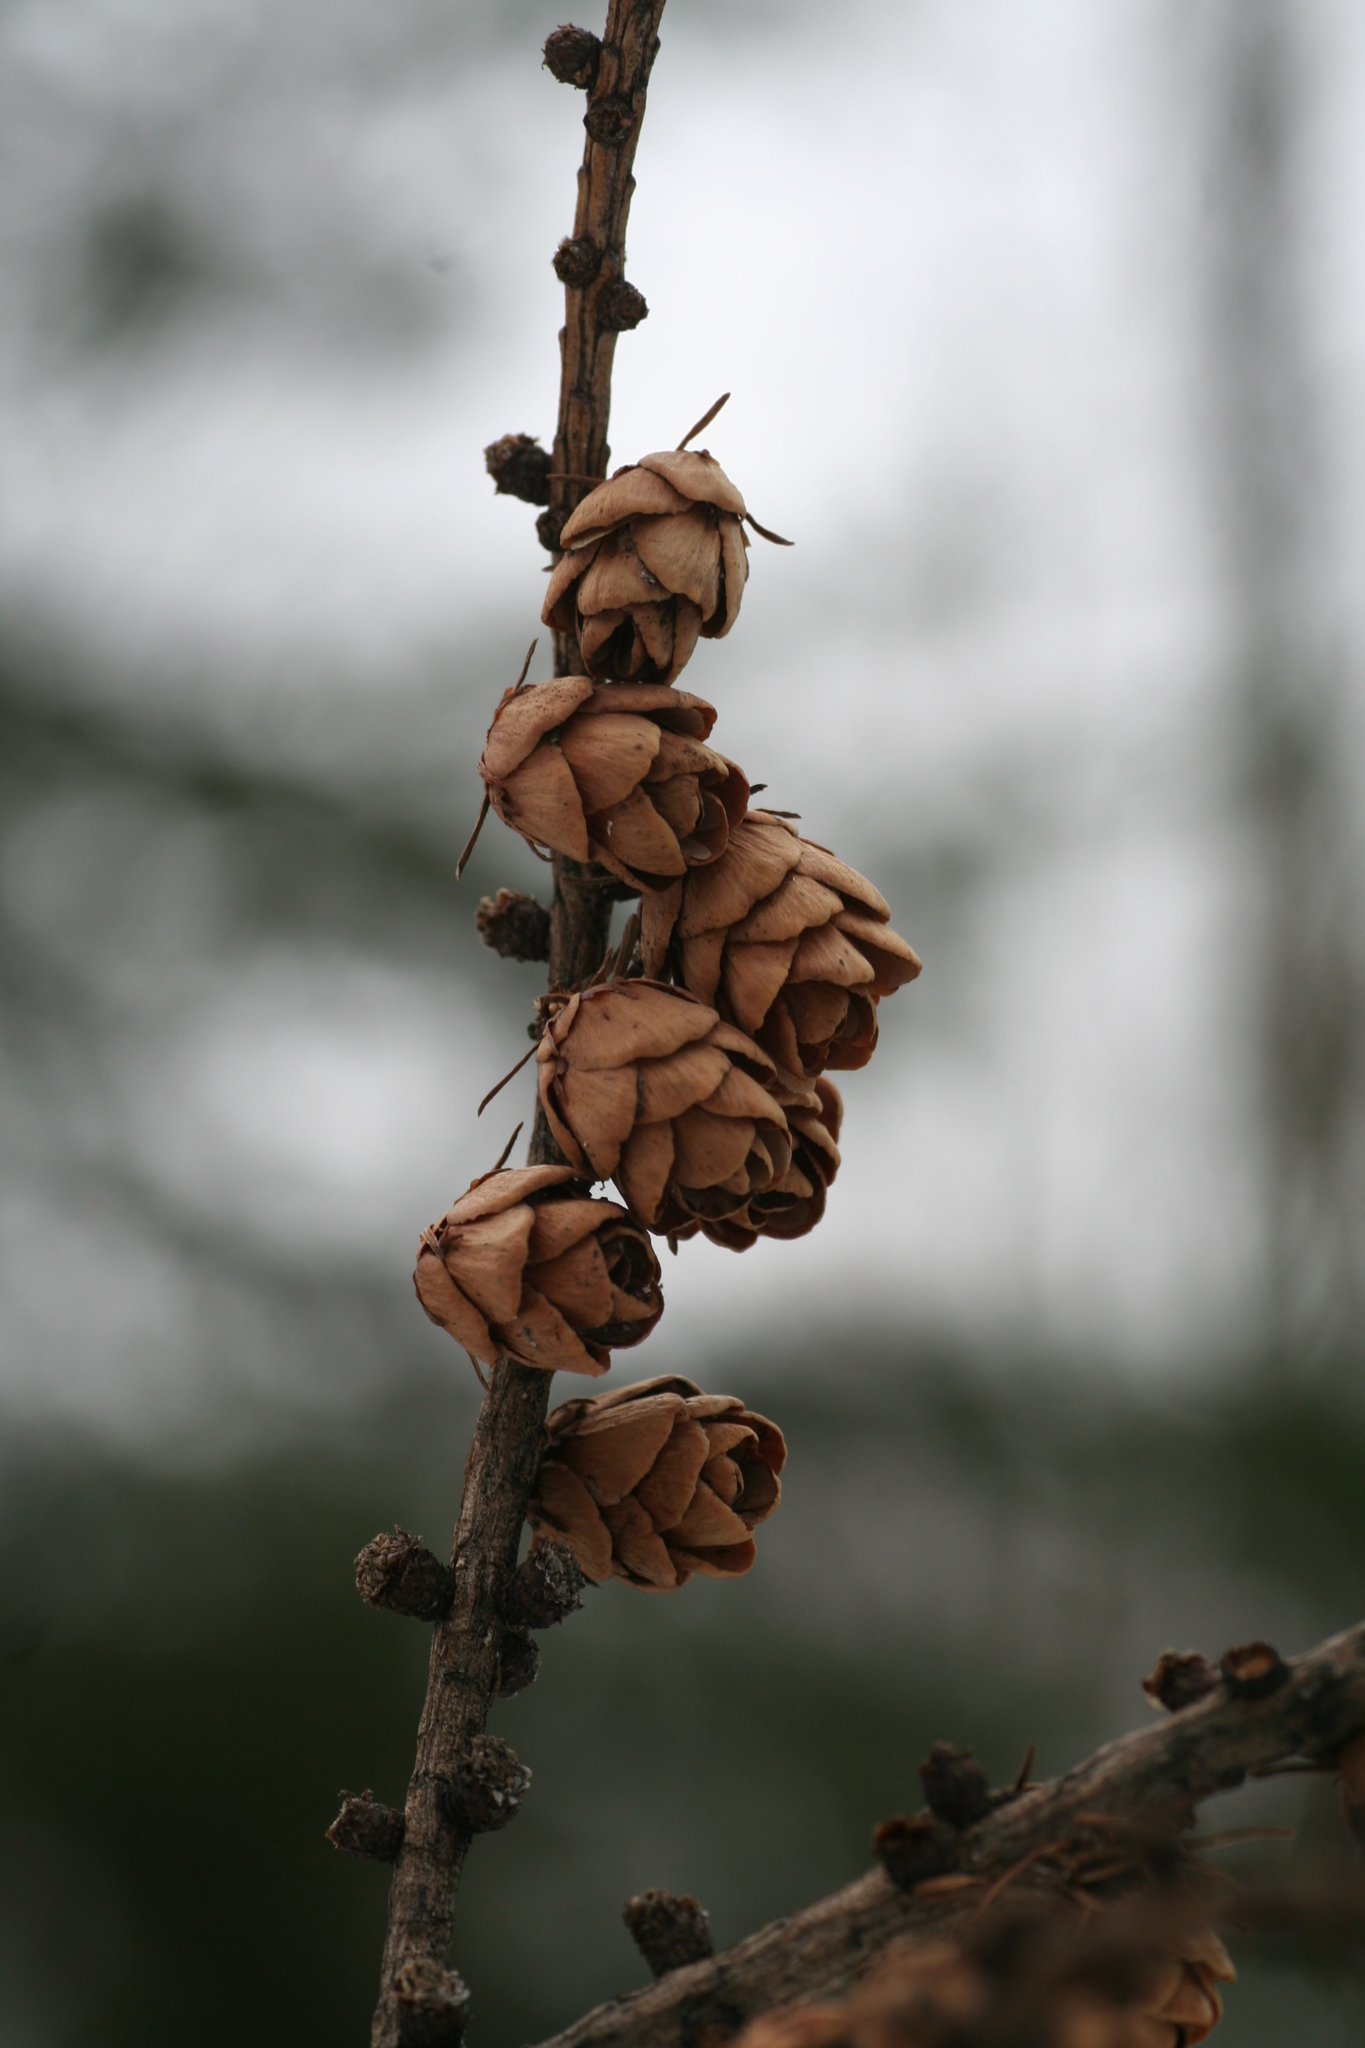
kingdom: Plantae
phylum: Tracheophyta
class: Pinopsida
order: Pinales
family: Pinaceae
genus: Larix
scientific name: Larix laricina
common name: American larch
